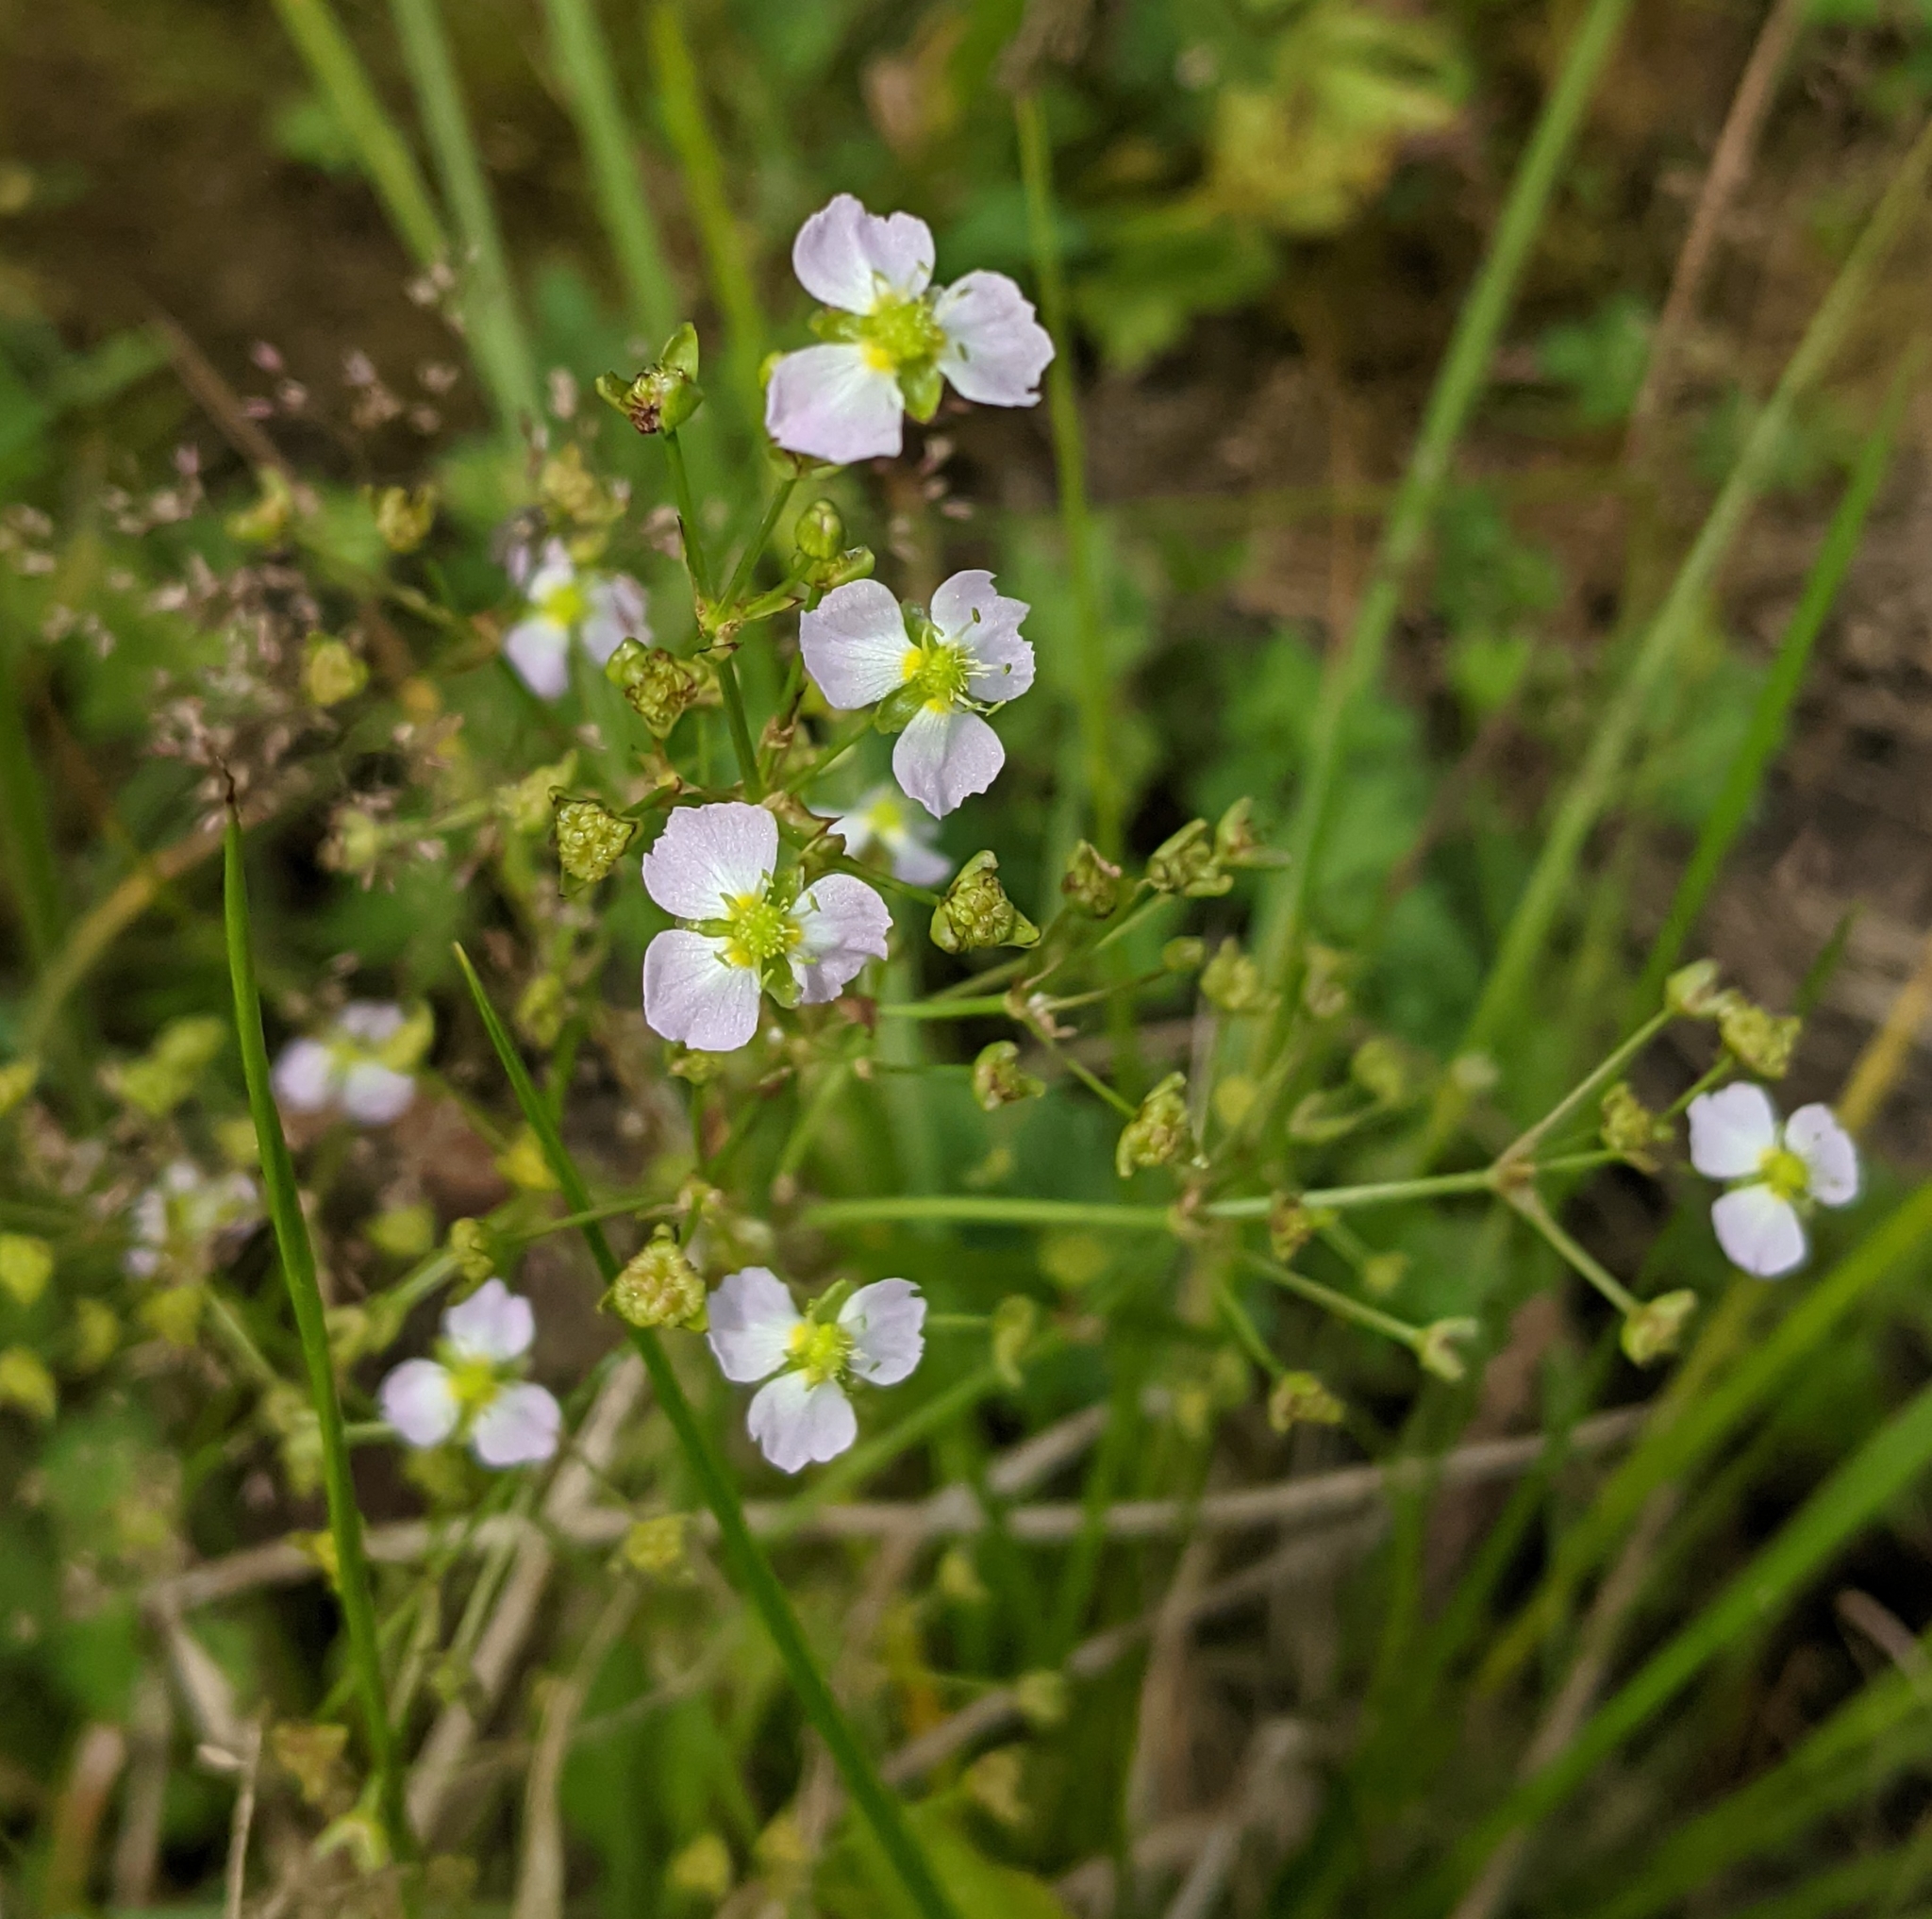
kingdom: Plantae
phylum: Tracheophyta
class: Liliopsida
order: Alismatales
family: Alismataceae
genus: Alisma
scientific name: Alisma plantago-aquatica
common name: Water-plantain
